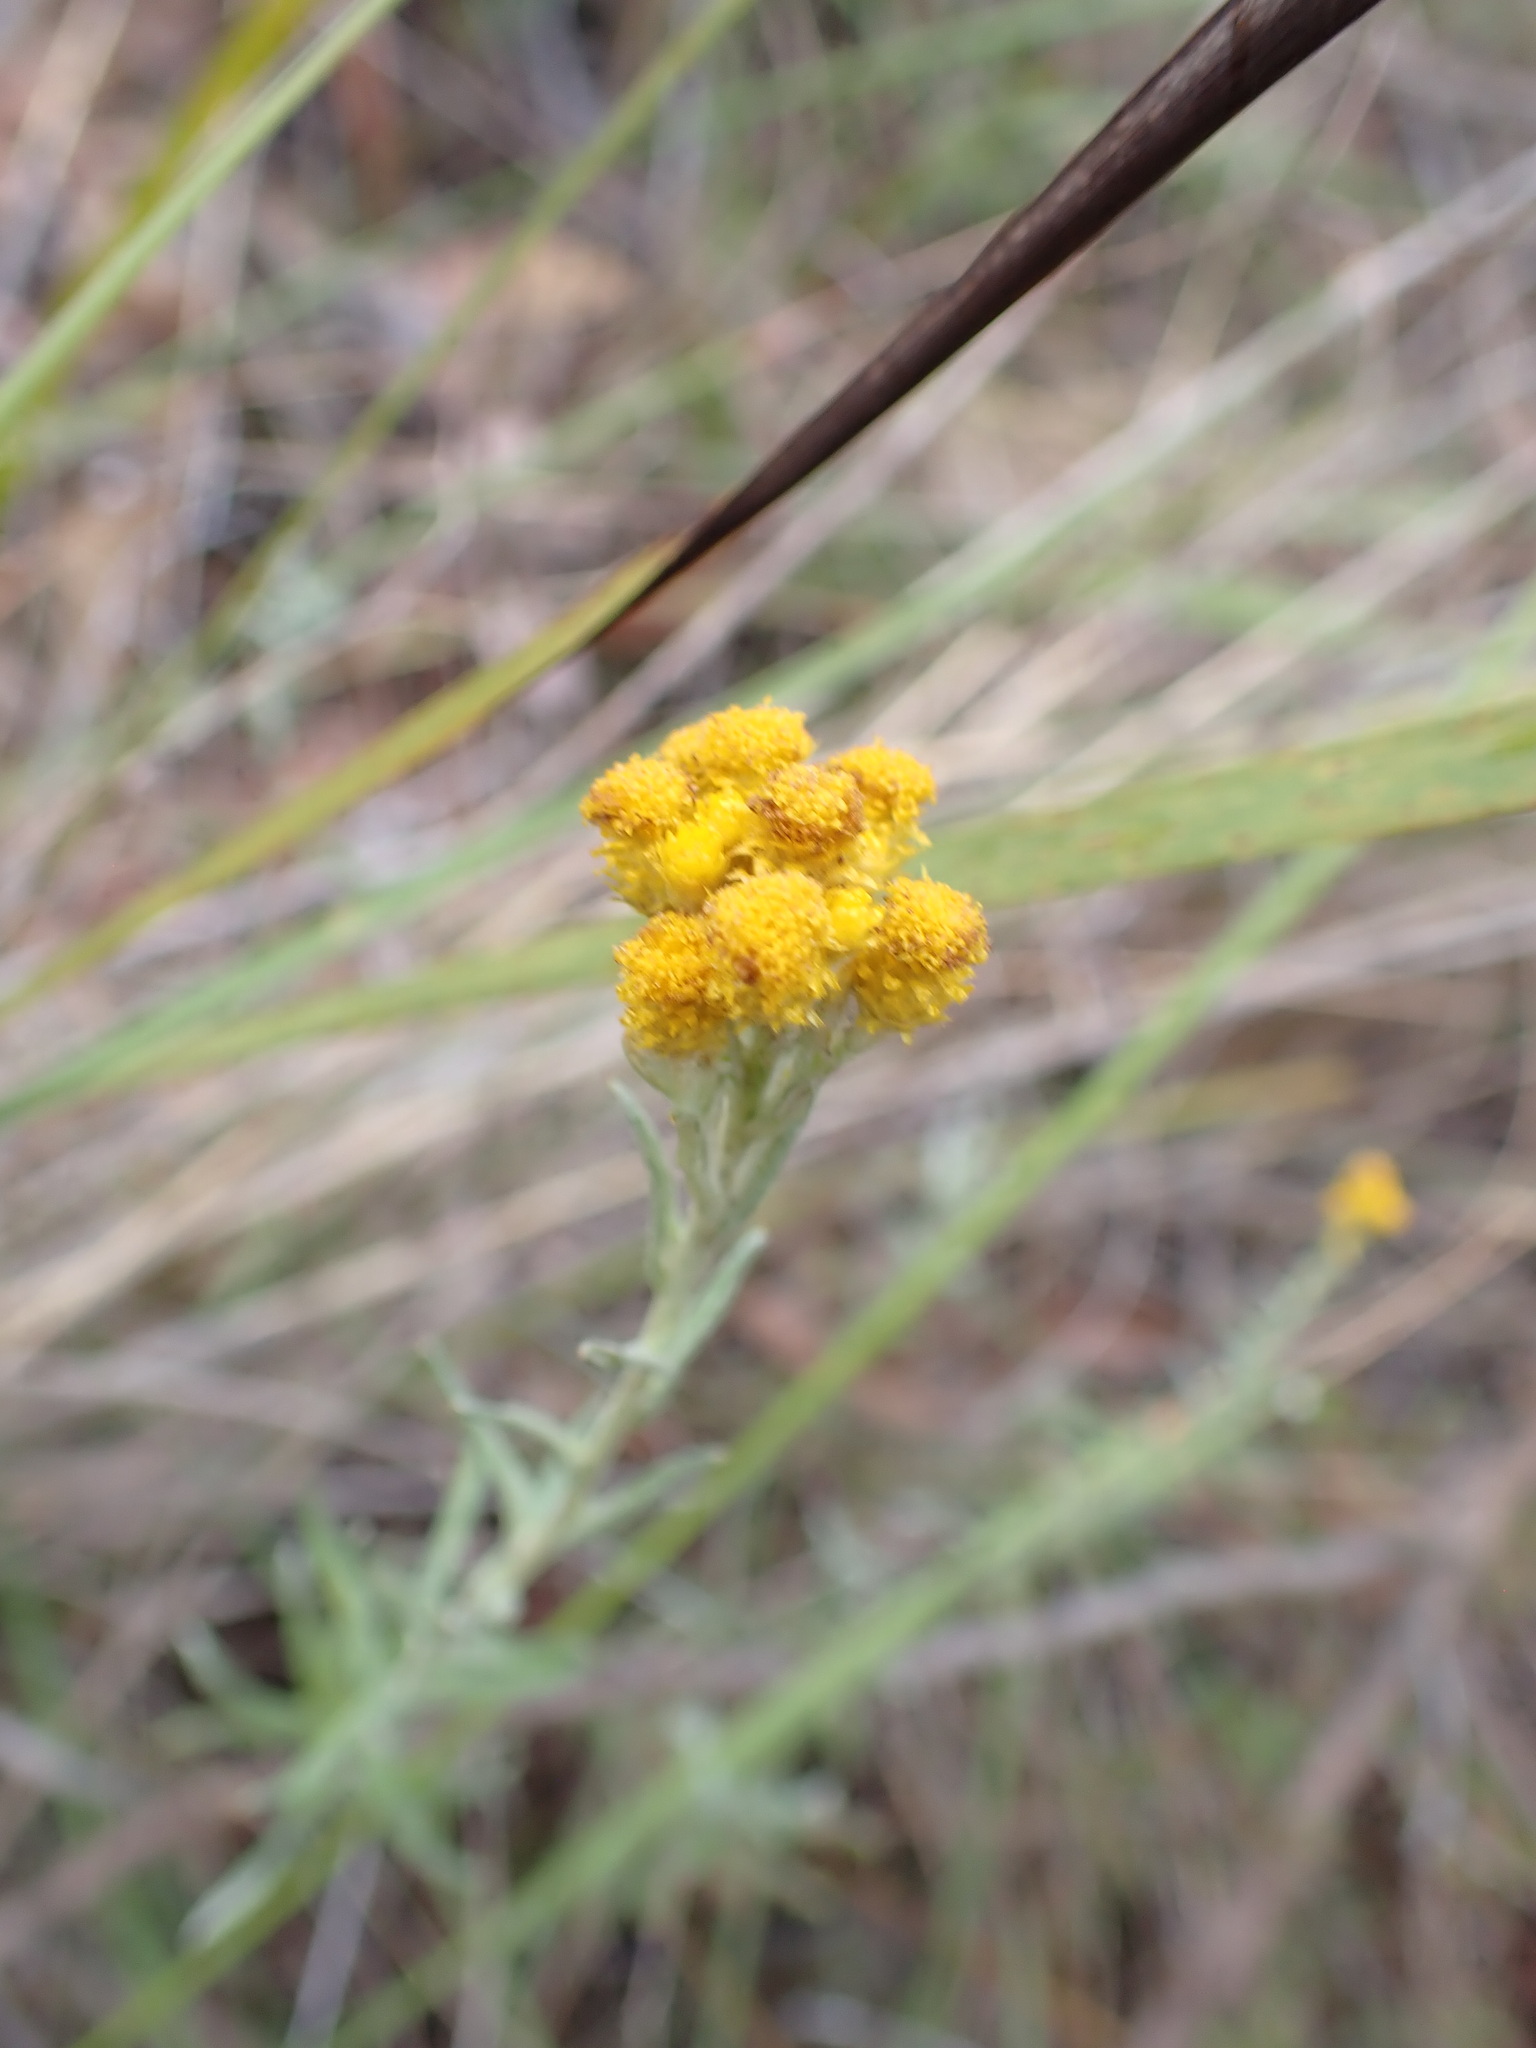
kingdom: Plantae
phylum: Tracheophyta
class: Magnoliopsida
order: Asterales
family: Asteraceae
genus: Chrysocephalum
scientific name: Chrysocephalum semipapposum
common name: Clustered everlasting
